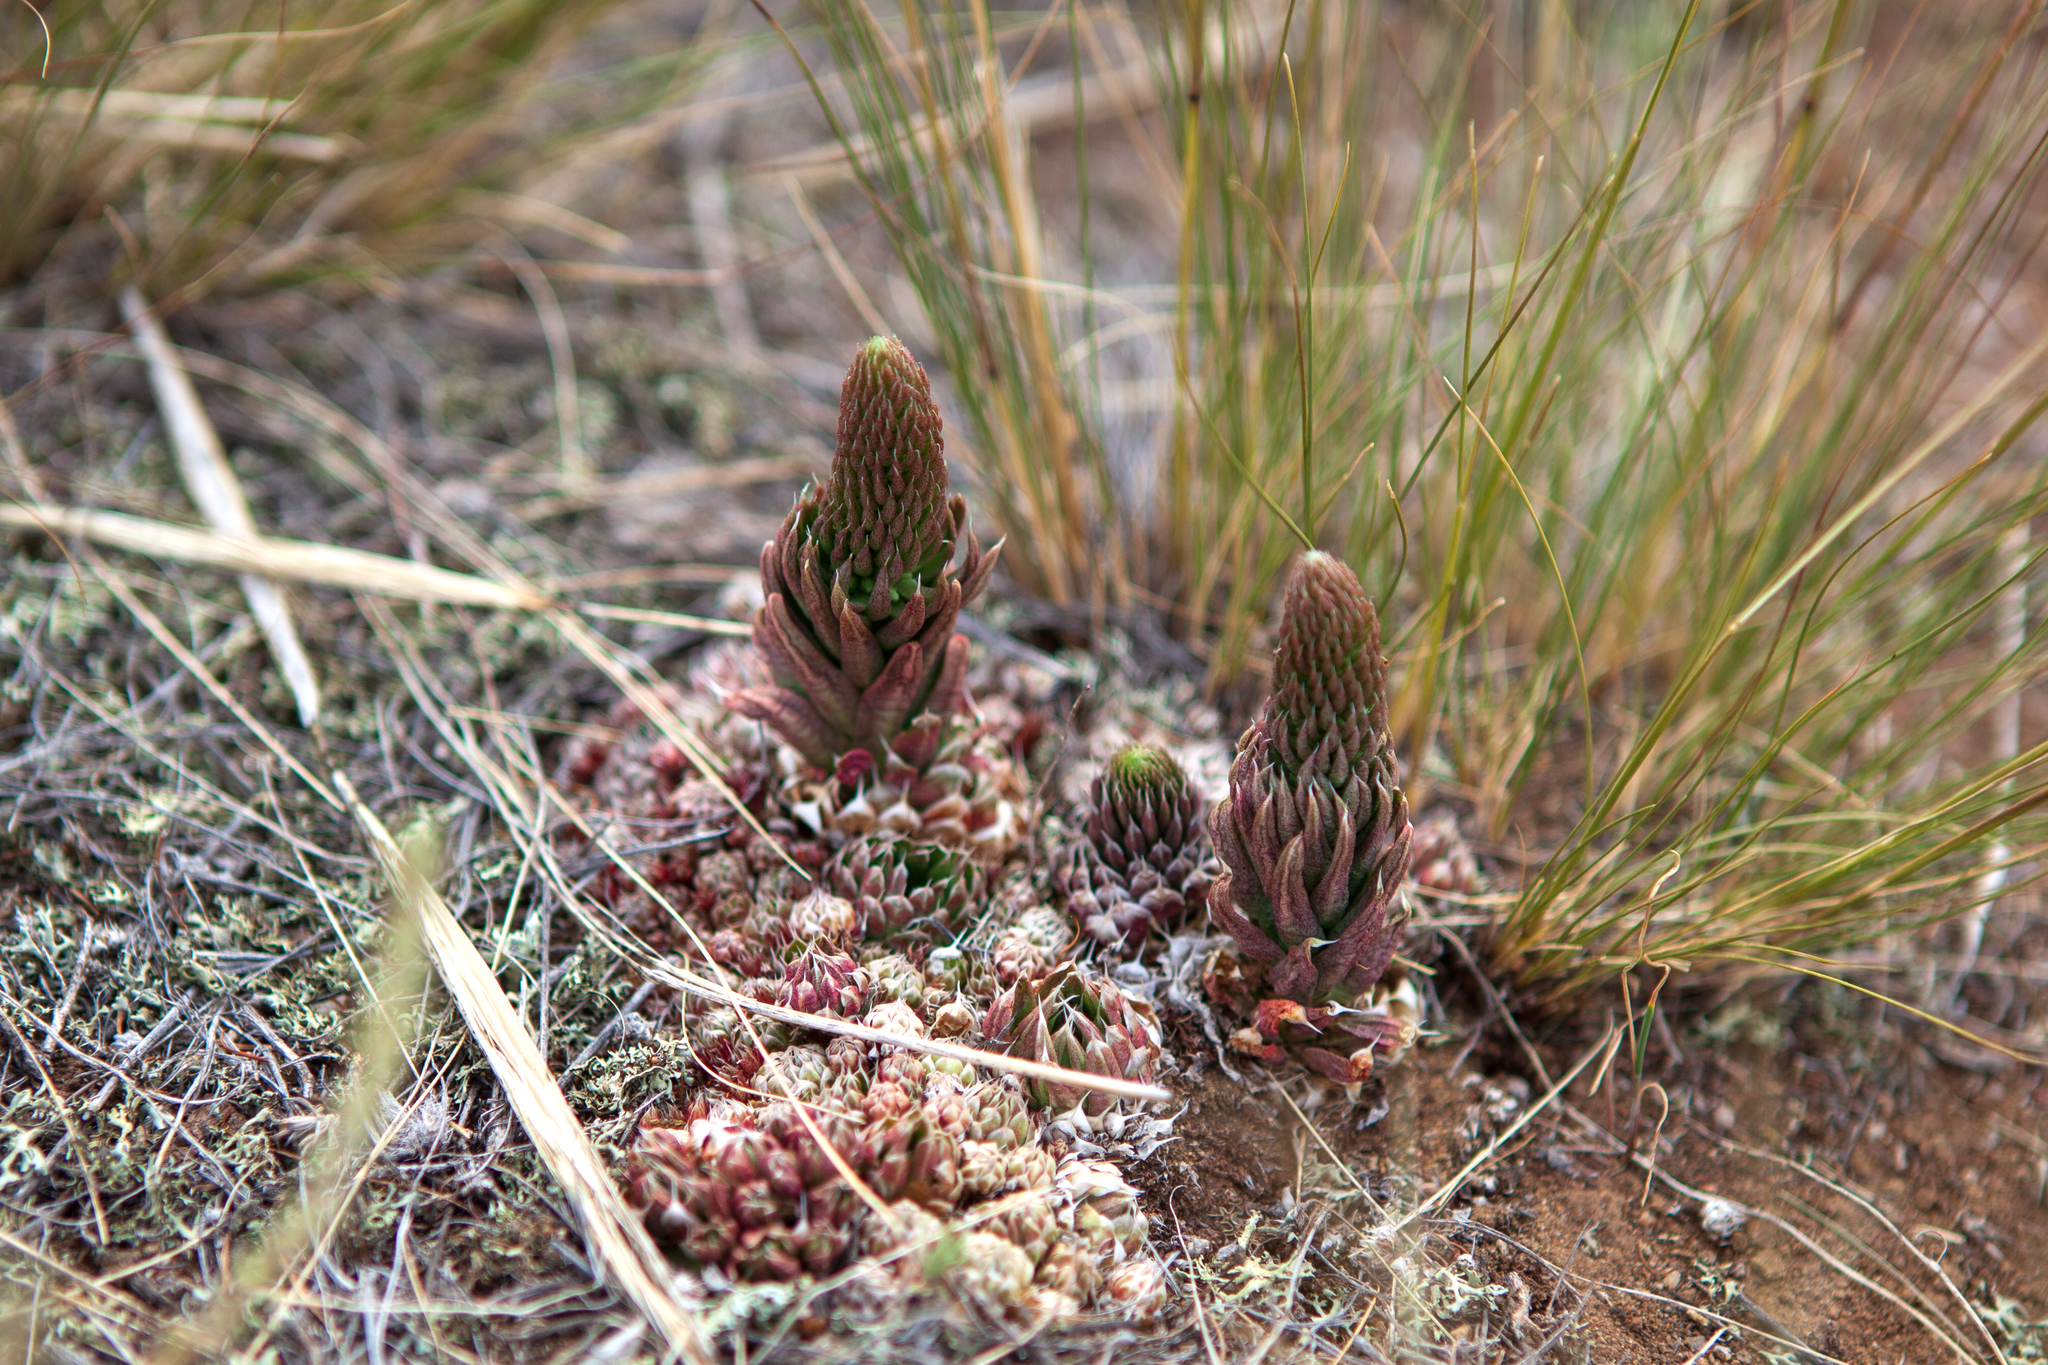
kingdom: Plantae
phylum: Tracheophyta
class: Magnoliopsida
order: Saxifragales
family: Crassulaceae
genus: Orostachys
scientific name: Orostachys spinosa
